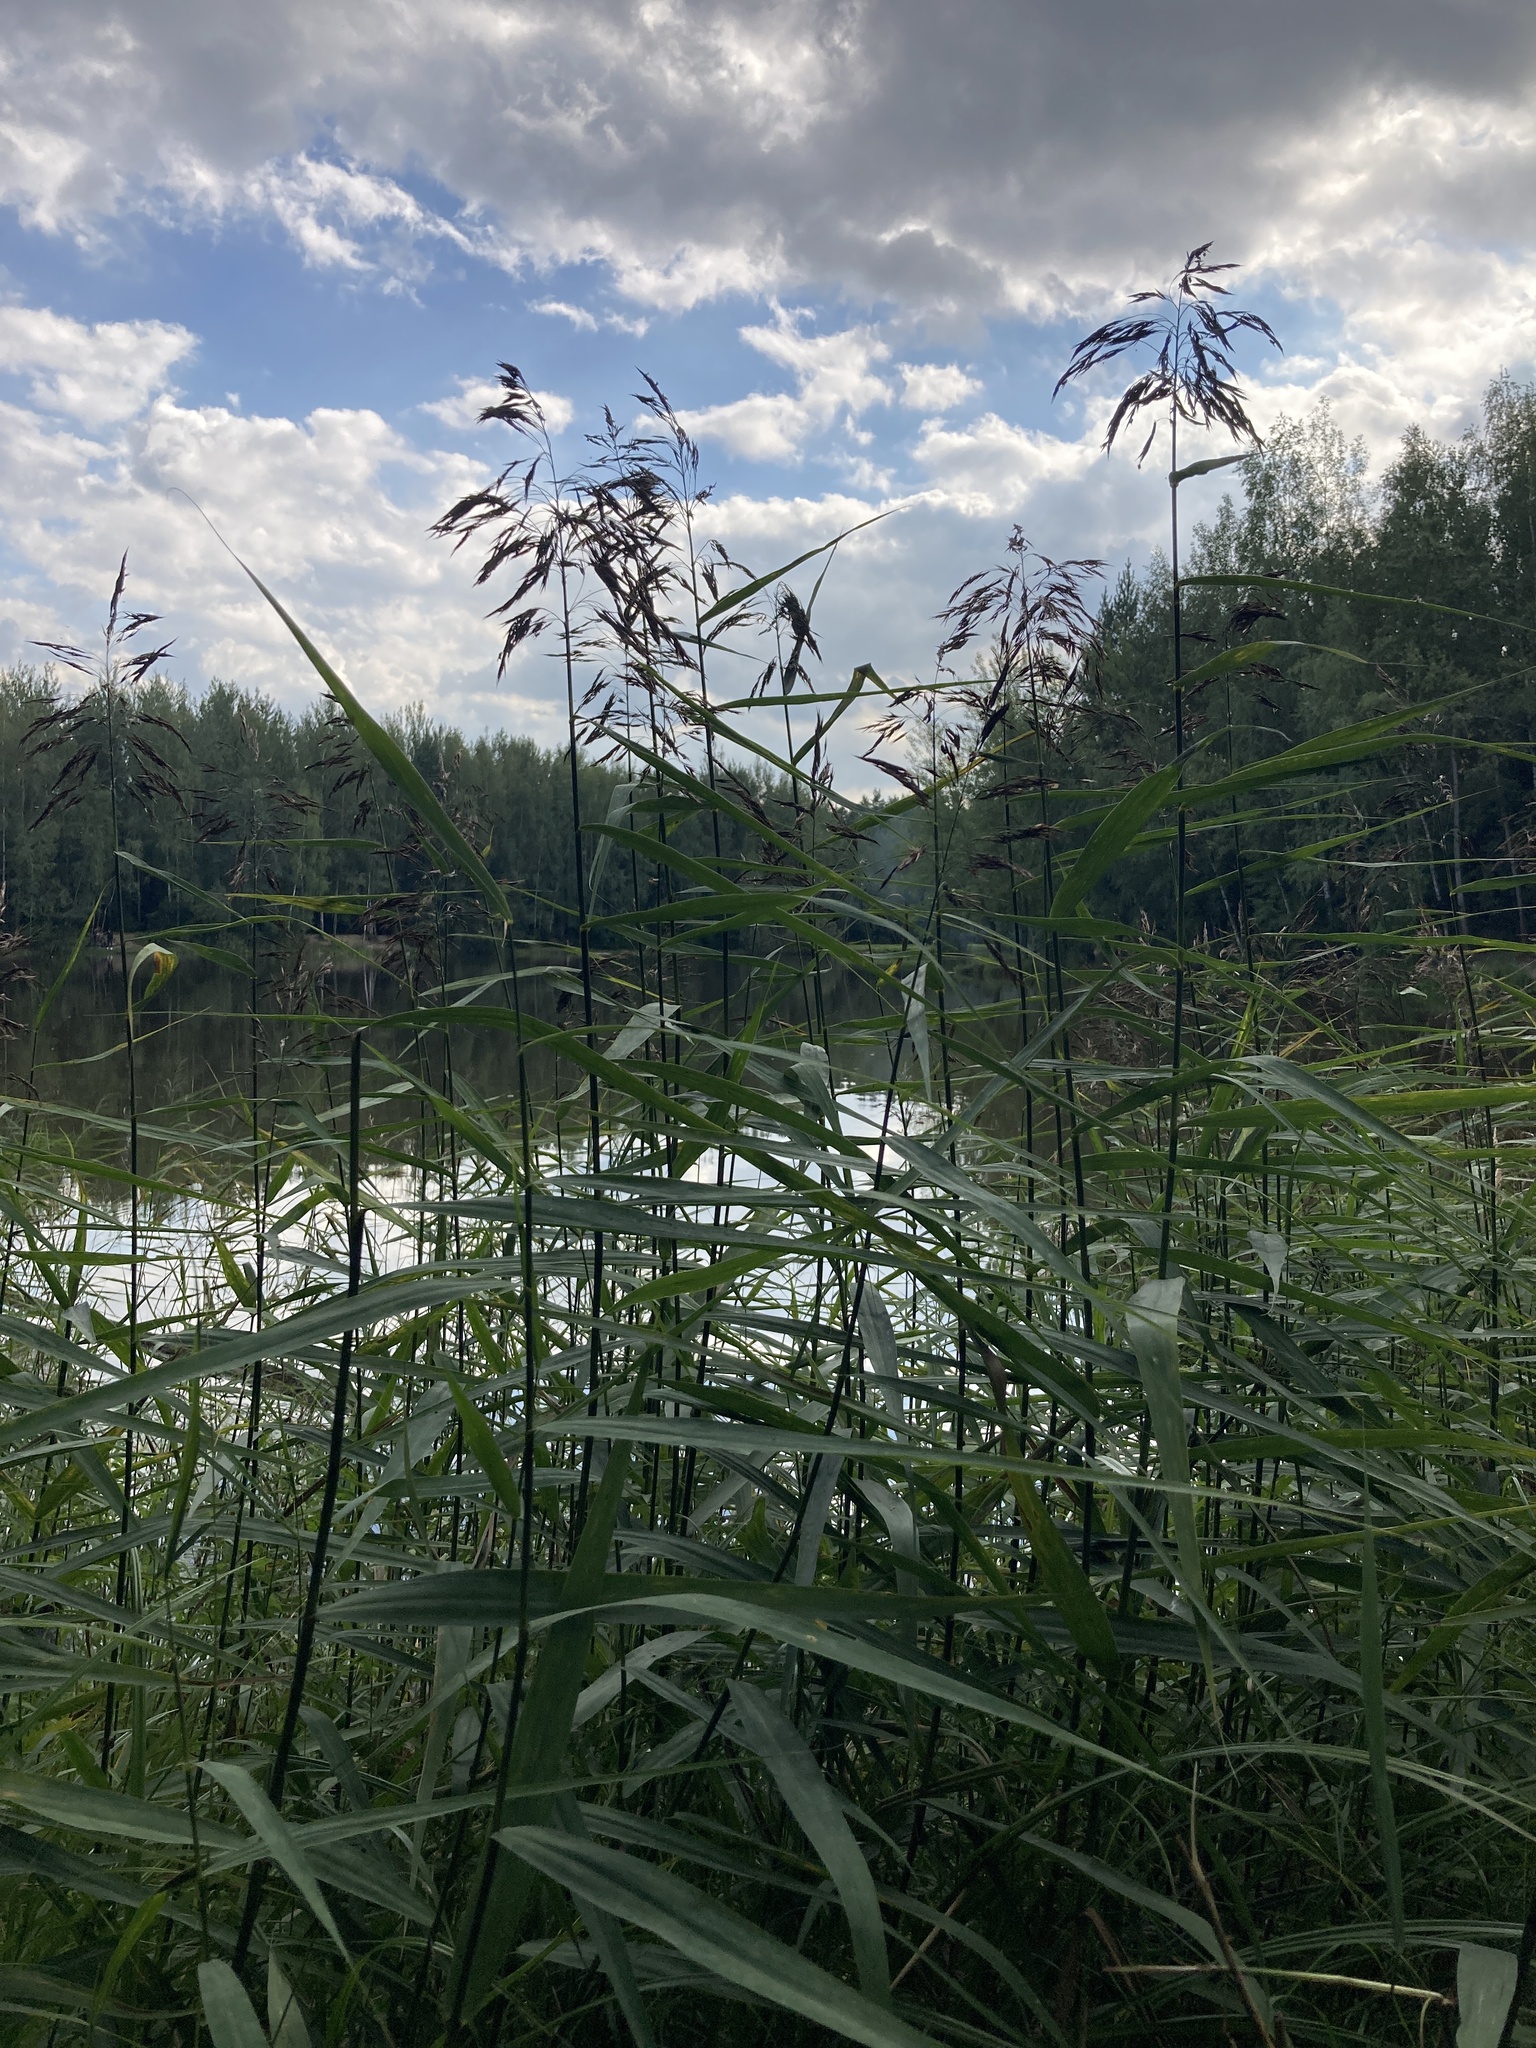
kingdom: Plantae
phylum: Tracheophyta
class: Liliopsida
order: Poales
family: Poaceae
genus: Phragmites
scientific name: Phragmites australis
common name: Common reed
